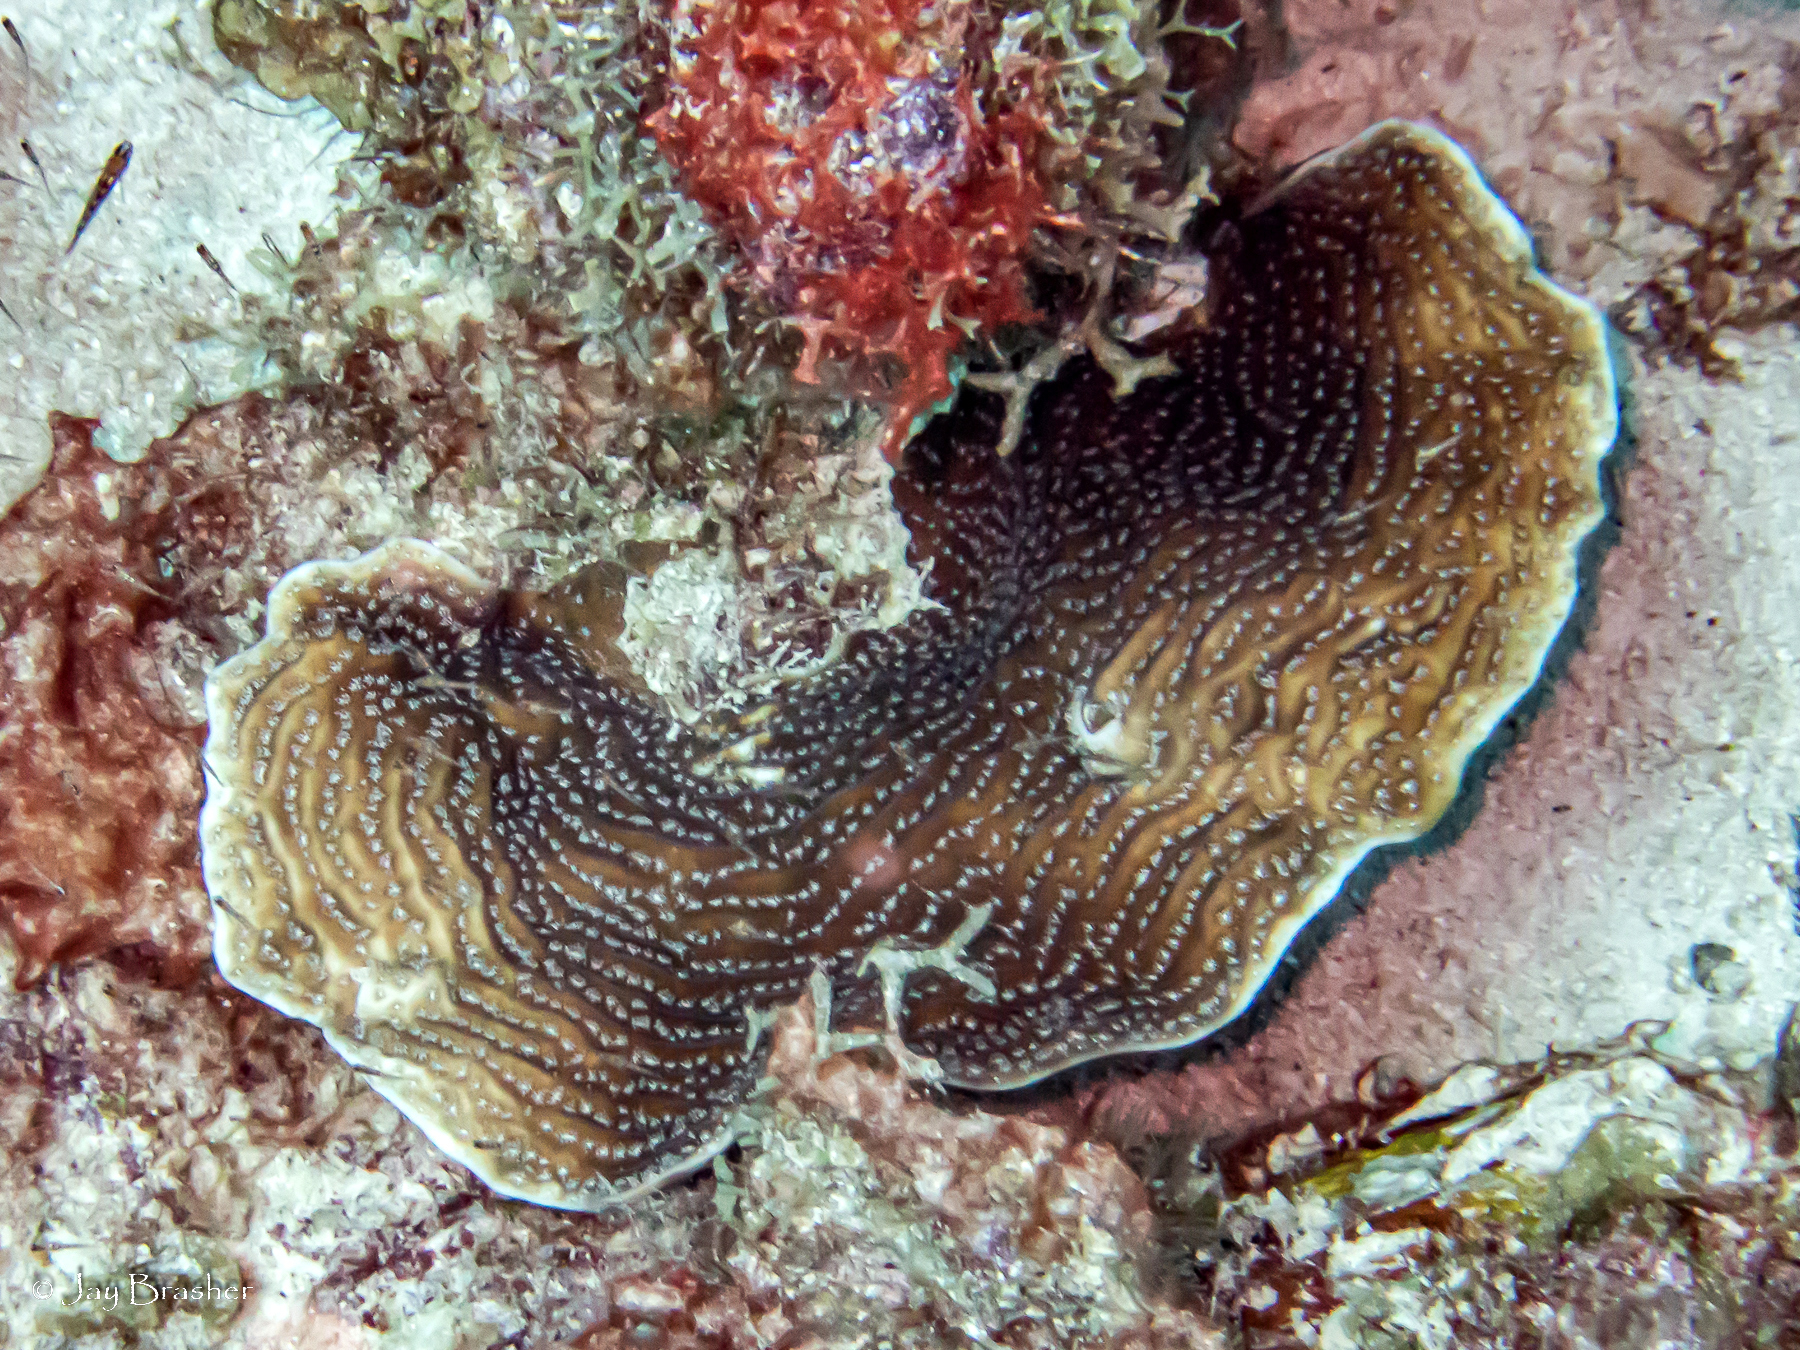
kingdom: Animalia
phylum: Cnidaria
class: Anthozoa
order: Scleractinia
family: Agariciidae
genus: Agaricia
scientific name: Agaricia lamarcki
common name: Lamarck's sheet coral
